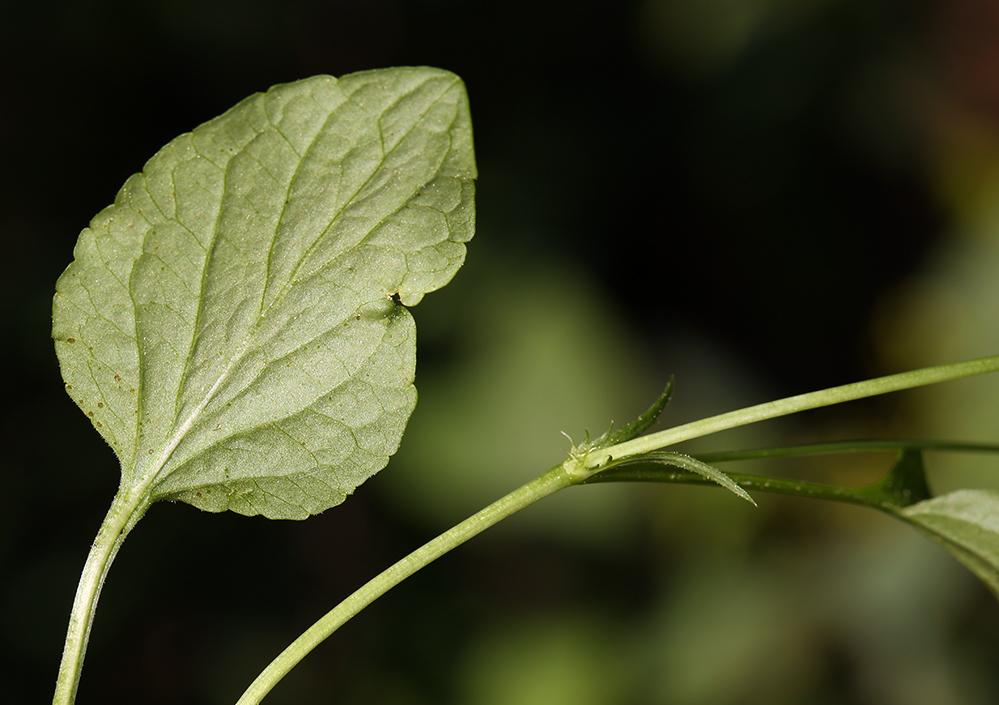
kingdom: Plantae
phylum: Tracheophyta
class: Magnoliopsida
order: Malpighiales
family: Violaceae
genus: Viola
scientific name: Viola adunca
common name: Sand violet
